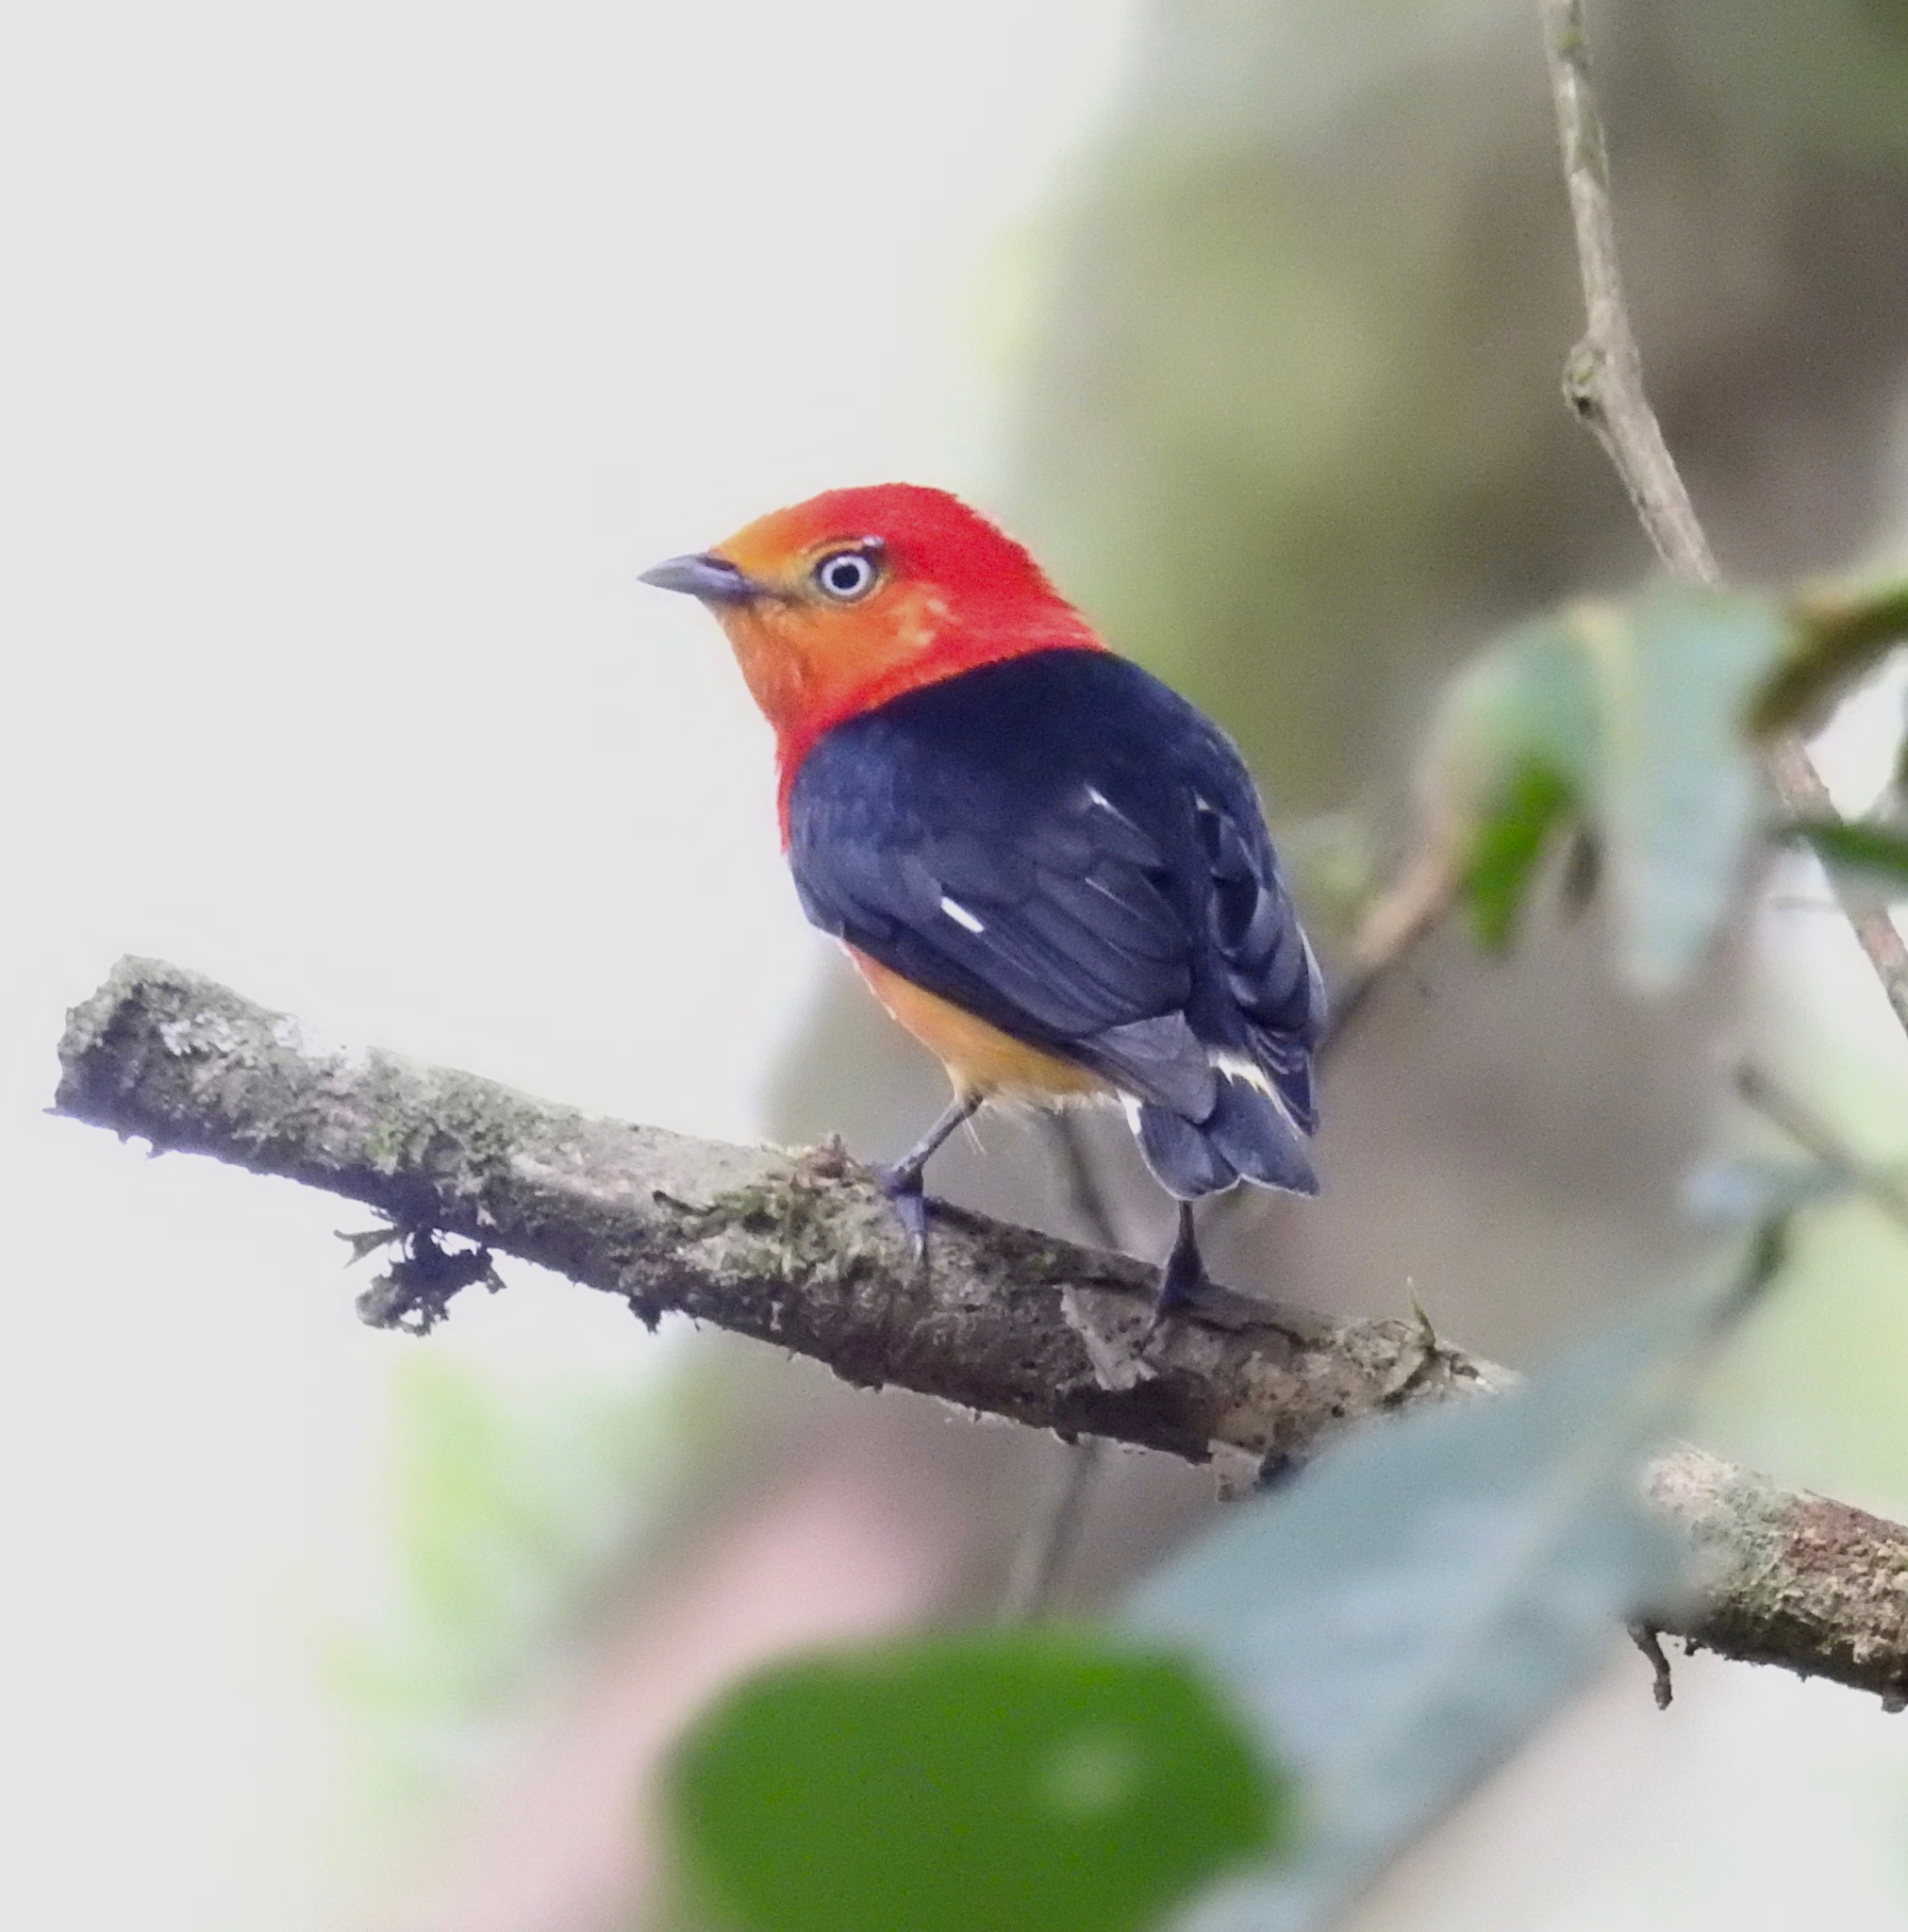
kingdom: Animalia
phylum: Chordata
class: Aves
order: Passeriformes
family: Pipridae
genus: Pipra
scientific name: Pipra fasciicauda
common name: Band-tailed manakin
